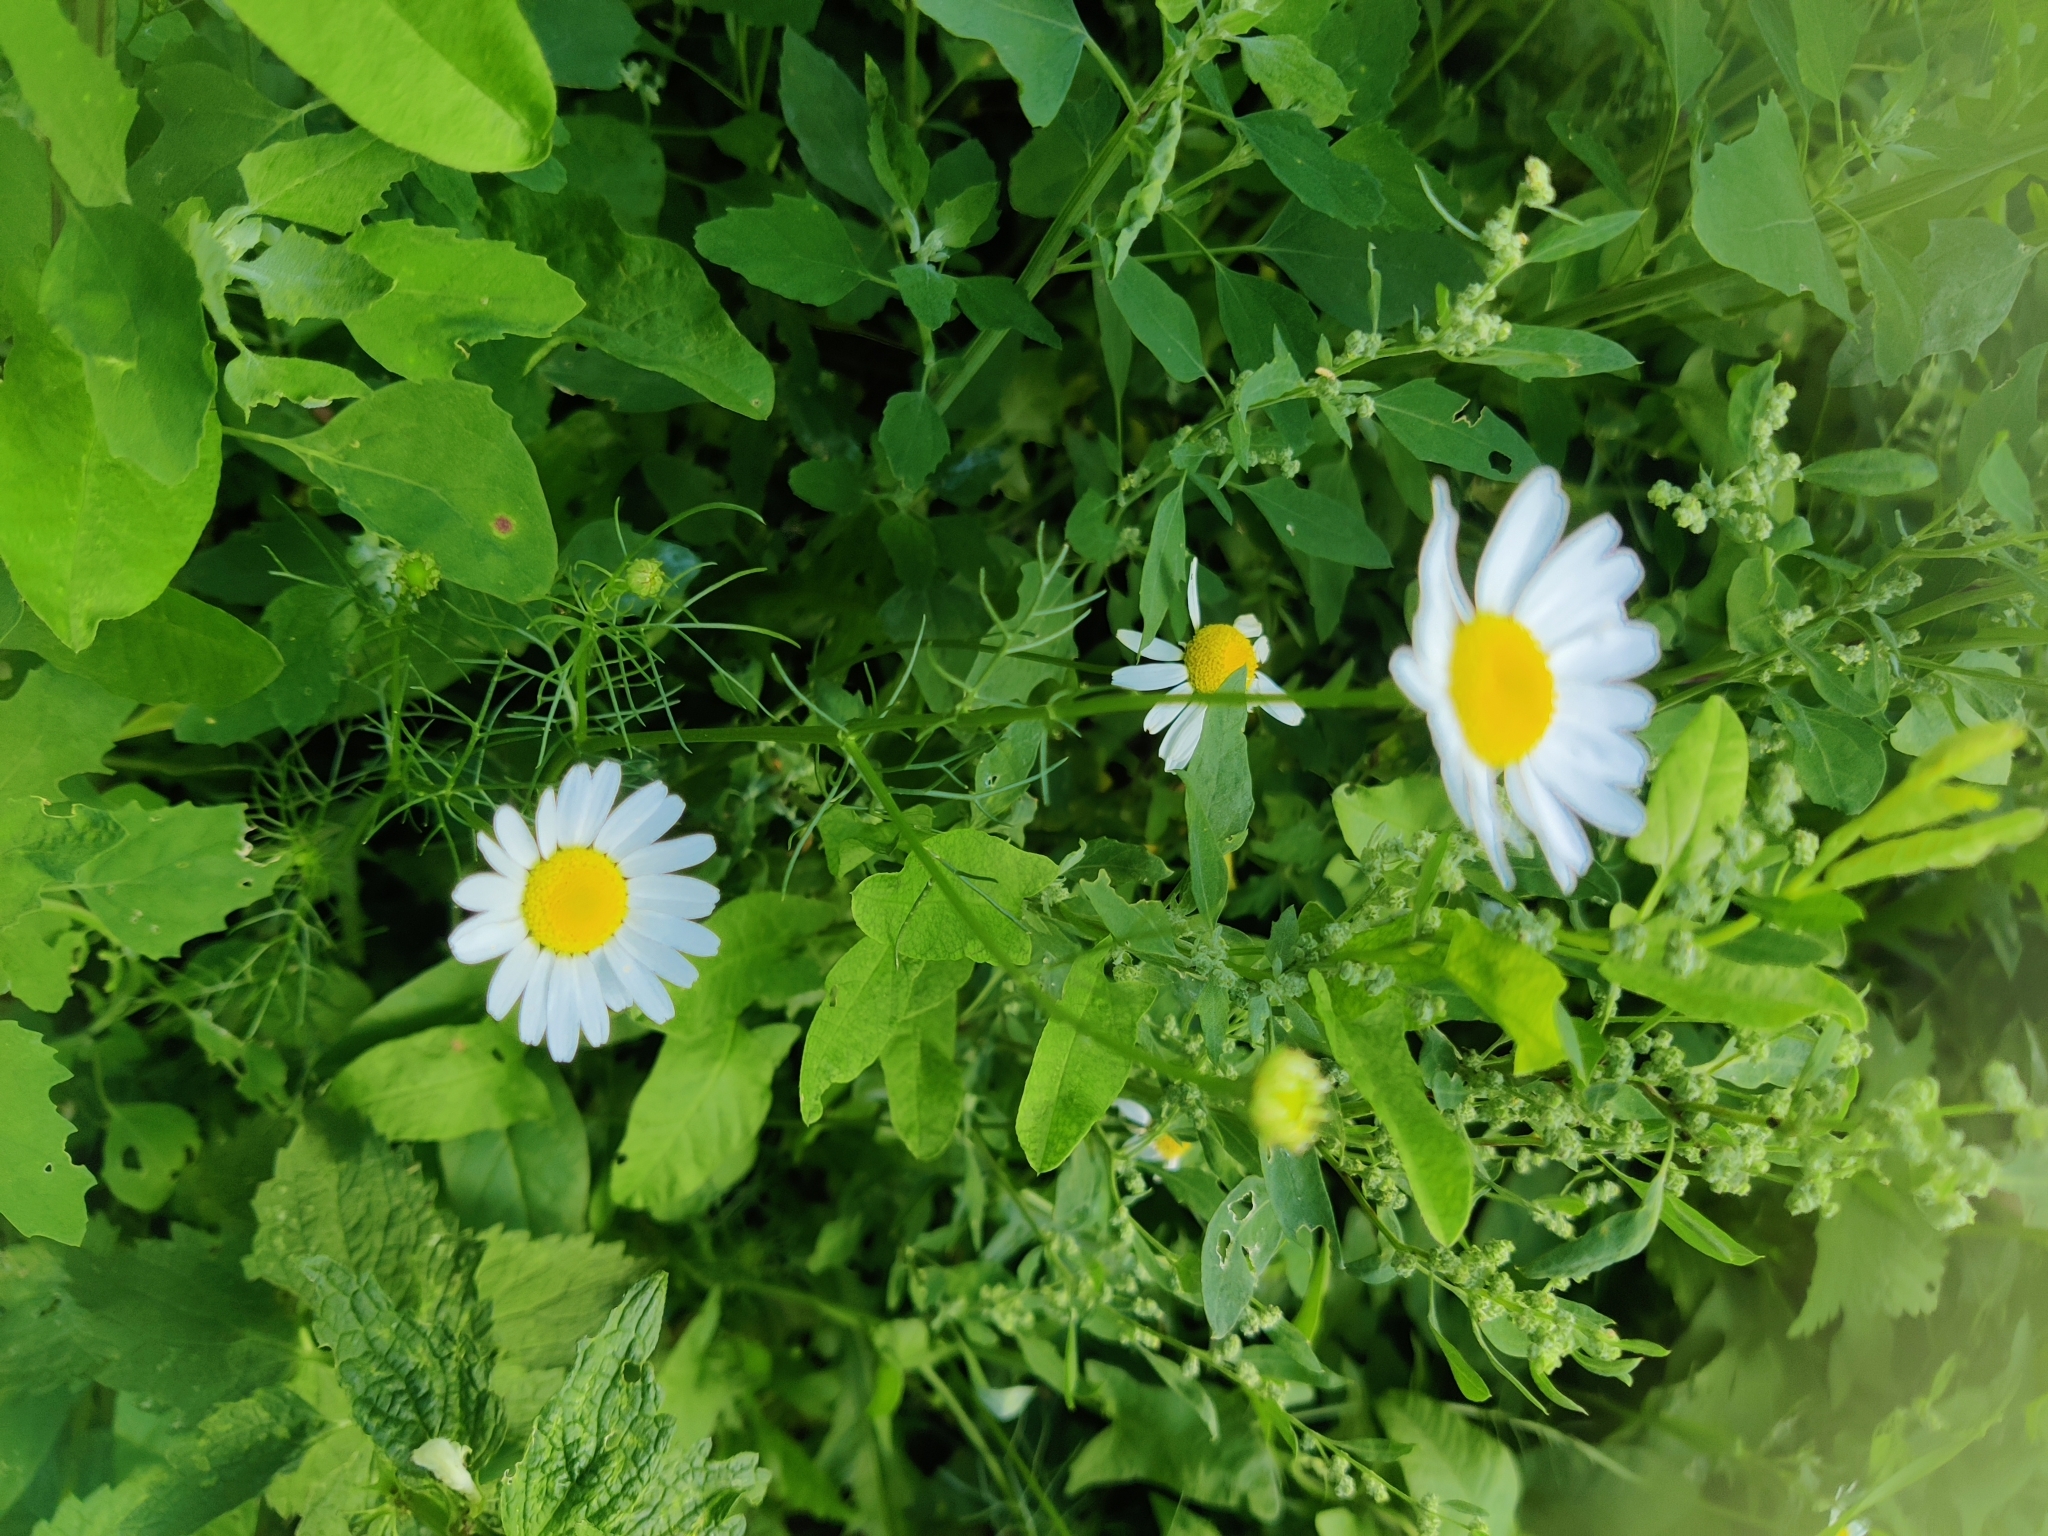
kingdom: Plantae
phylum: Tracheophyta
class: Magnoliopsida
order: Asterales
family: Asteraceae
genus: Tripleurospermum
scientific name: Tripleurospermum inodorum
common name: Scentless mayweed
